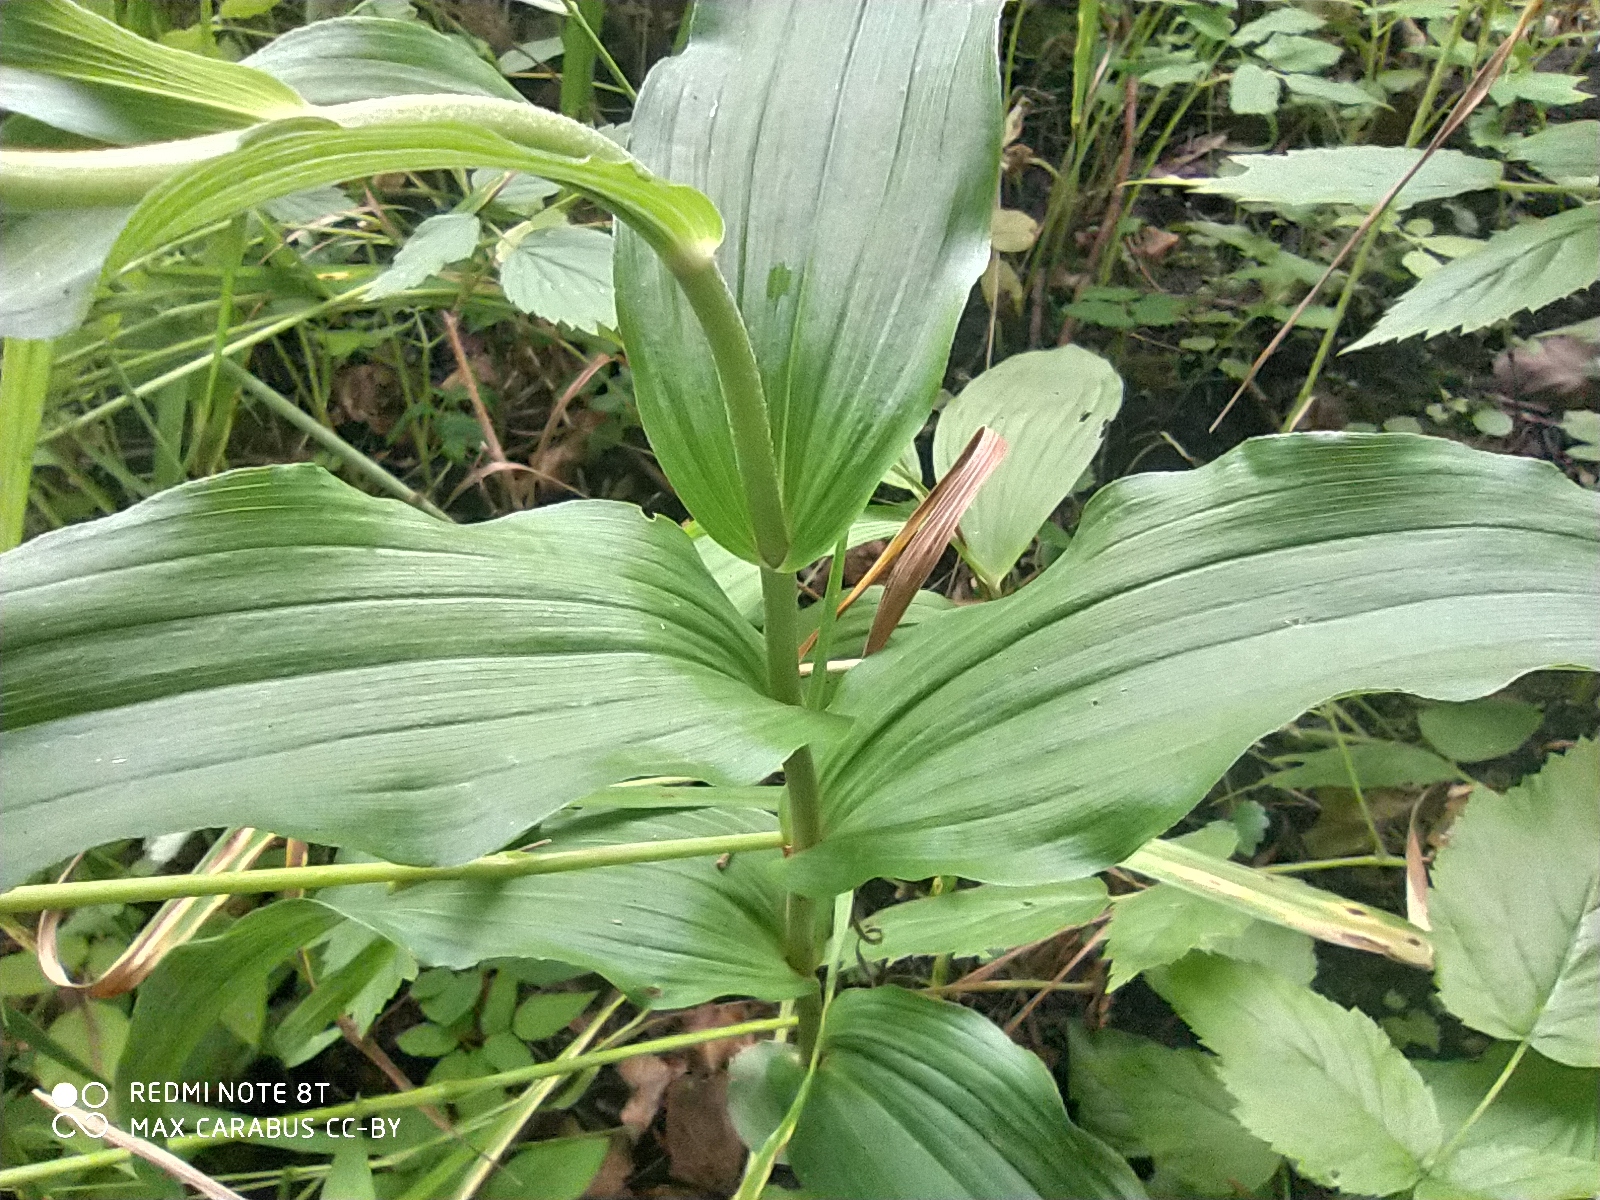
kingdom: Plantae
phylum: Tracheophyta
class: Liliopsida
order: Asparagales
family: Orchidaceae
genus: Epipactis
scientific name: Epipactis helleborine
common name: Broad-leaved helleborine
